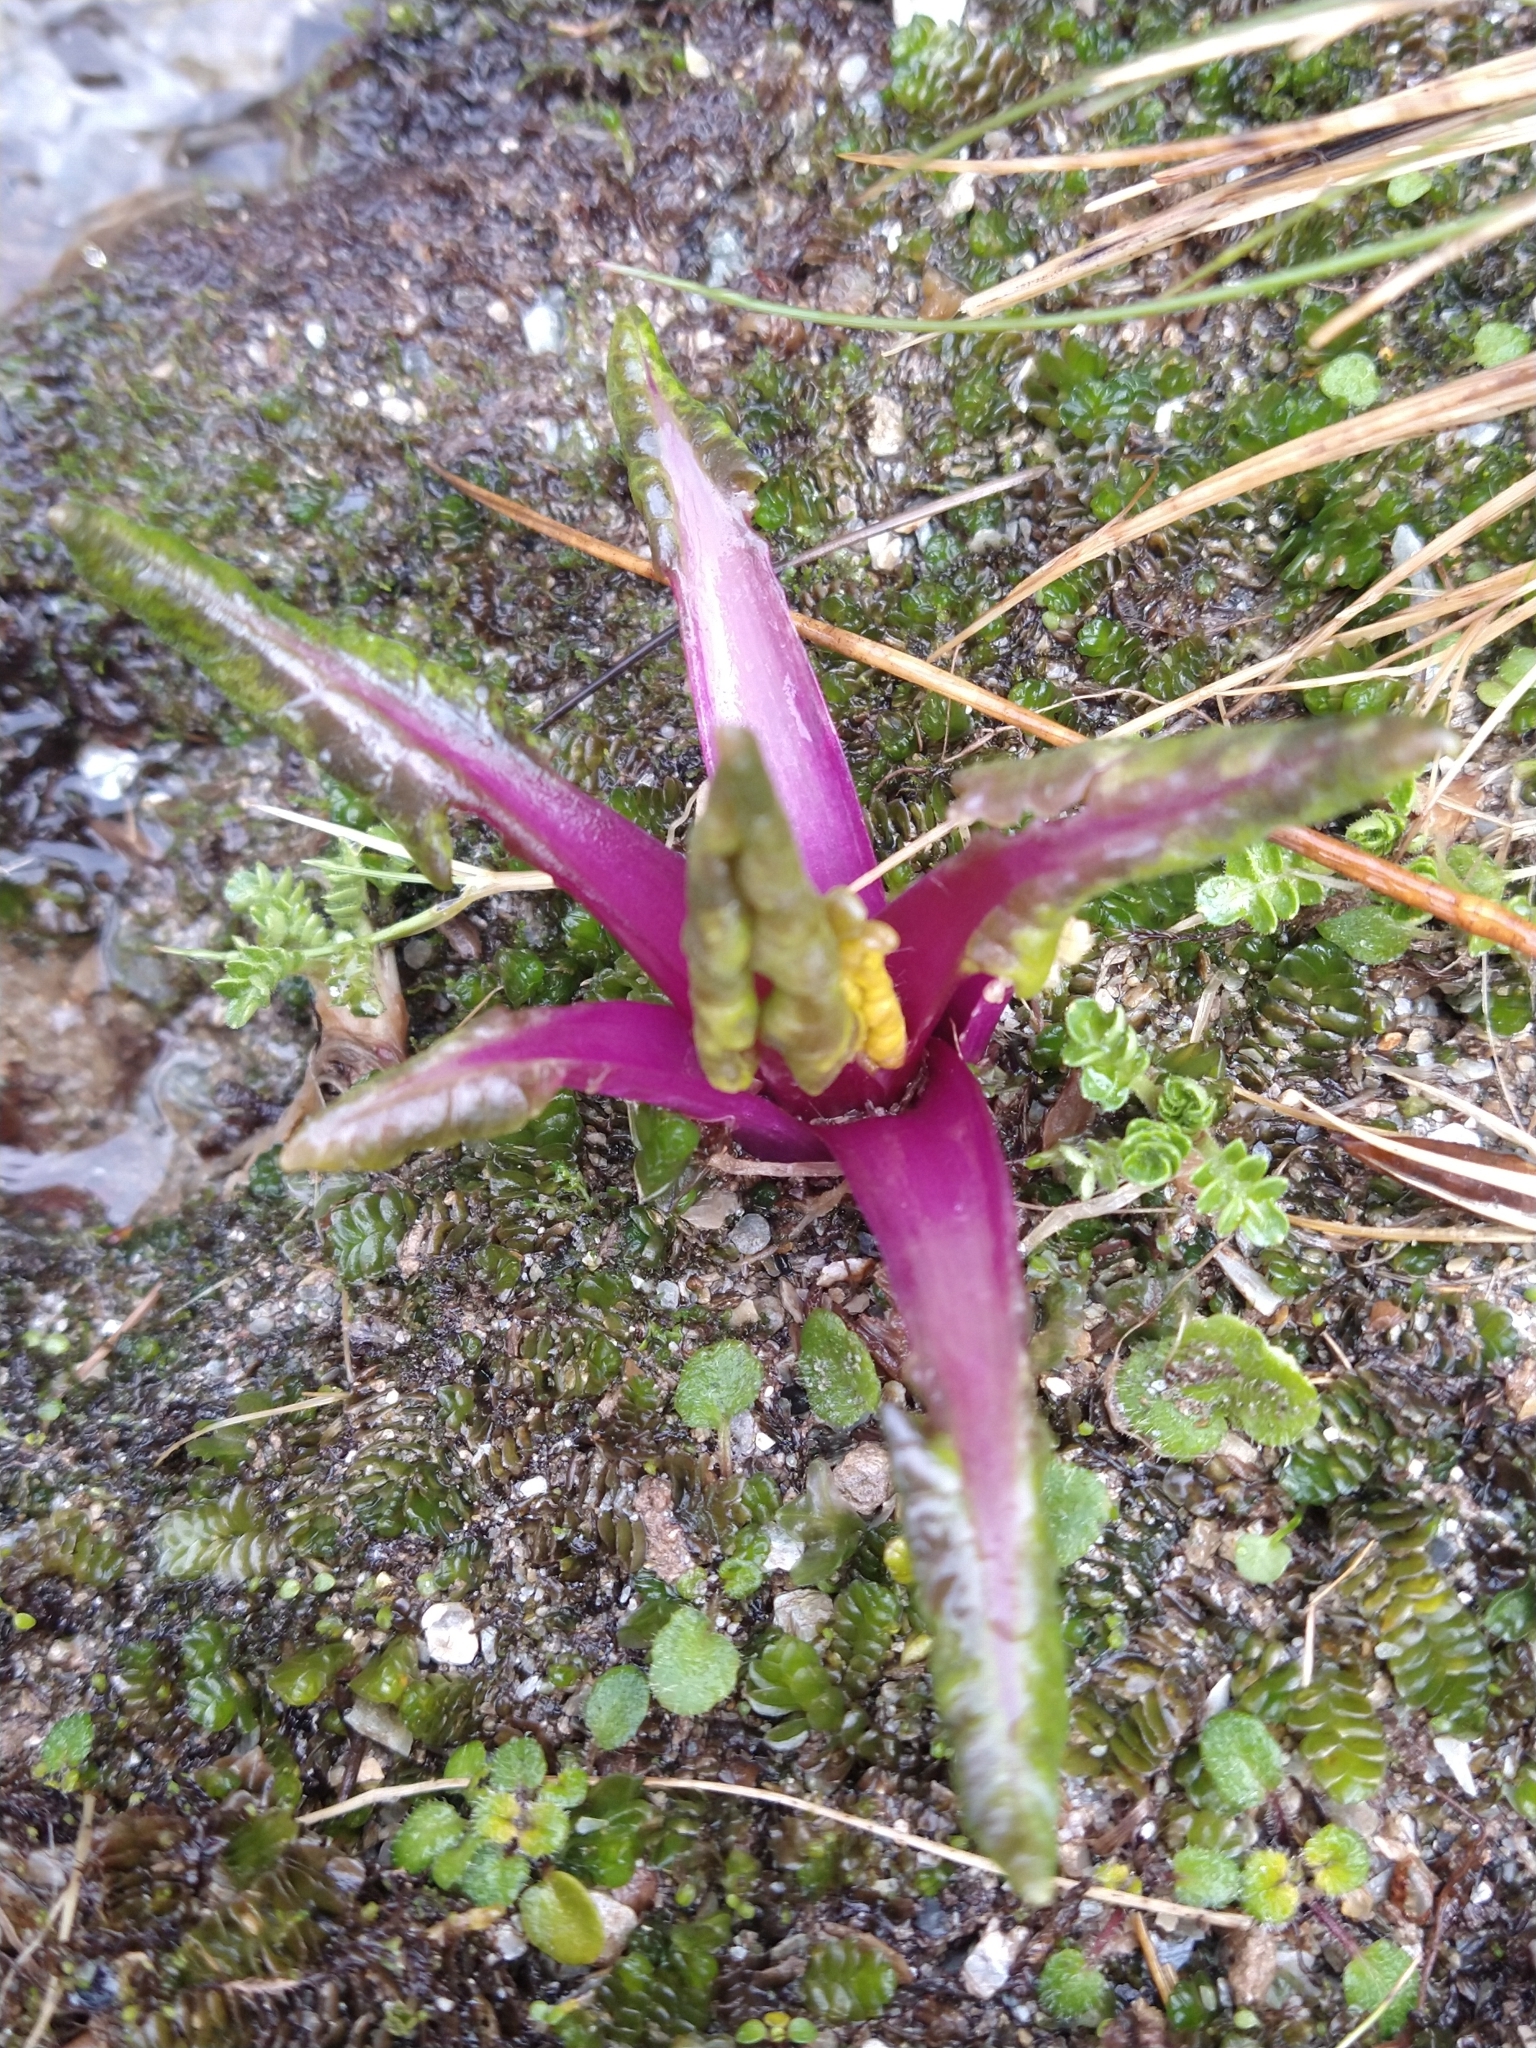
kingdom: Plantae
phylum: Tracheophyta
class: Magnoliopsida
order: Asterales
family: Asteraceae
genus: Iocenes
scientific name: Iocenes virens
